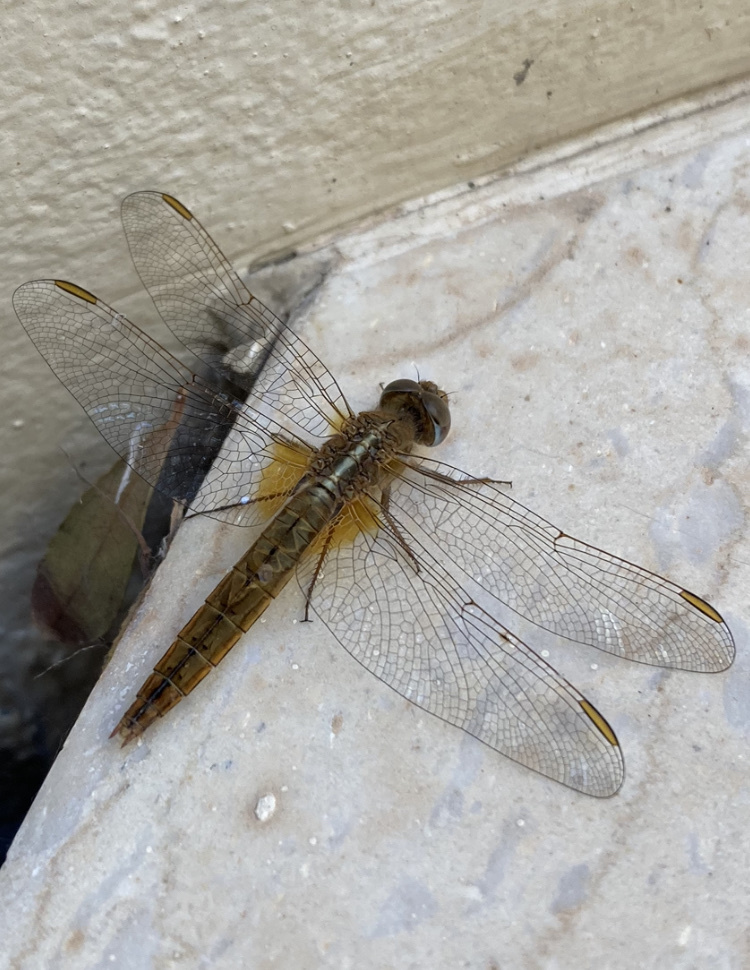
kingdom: Animalia
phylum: Arthropoda
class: Insecta
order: Odonata
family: Libellulidae
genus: Crocothemis
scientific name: Crocothemis erythraea
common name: Scarlet dragonfly
